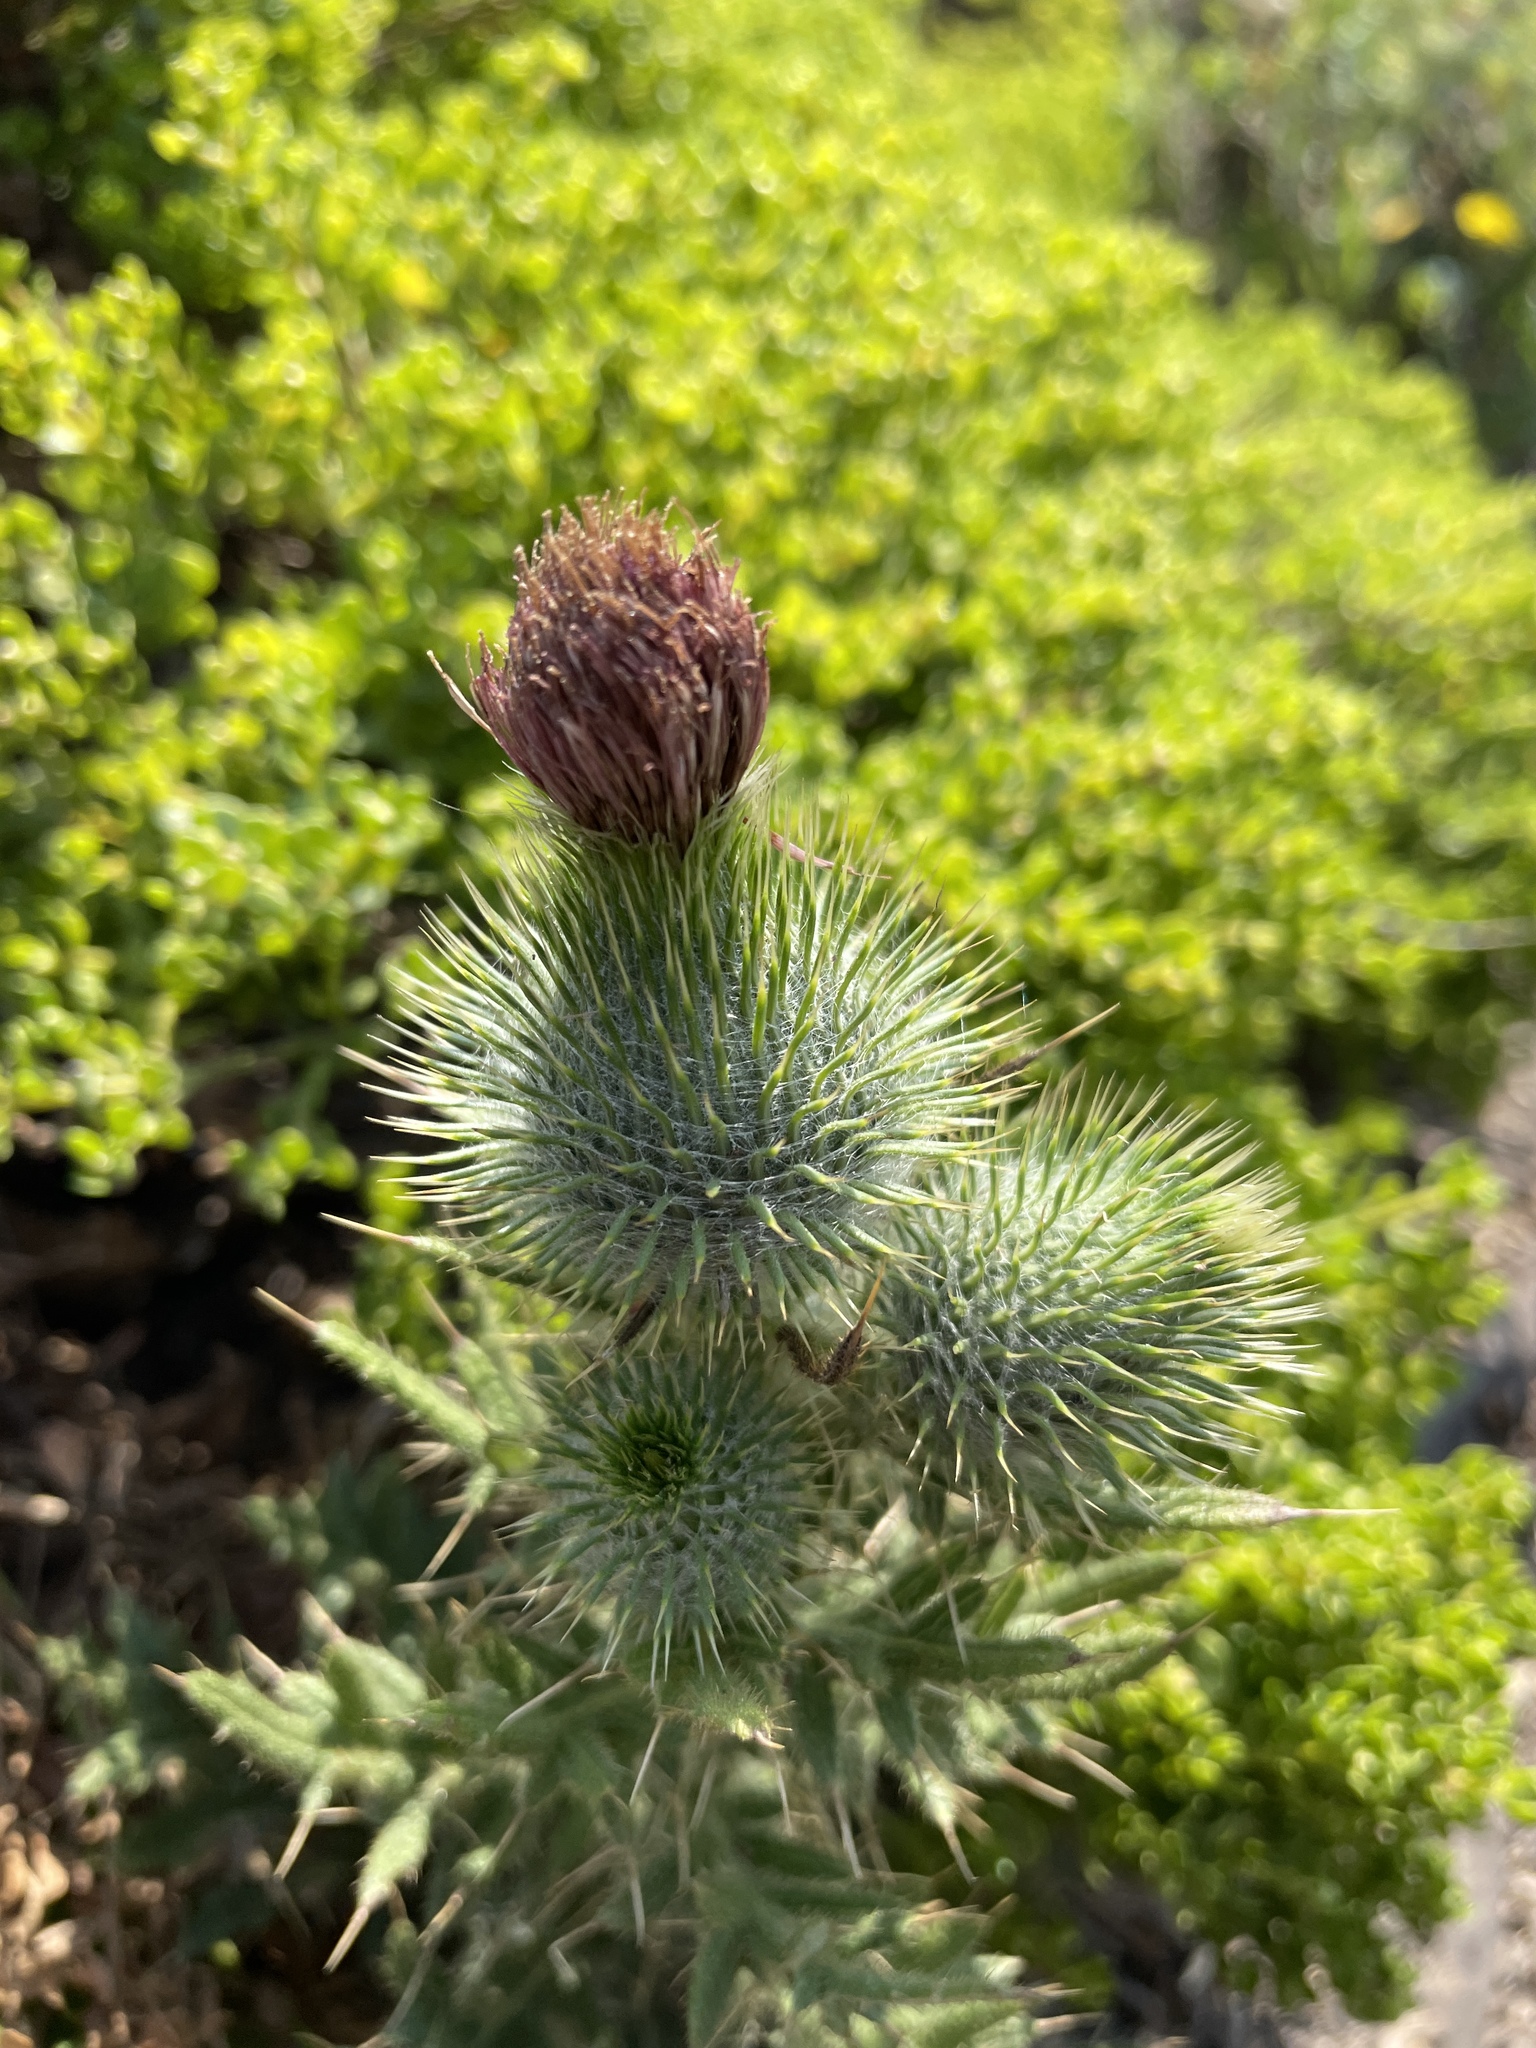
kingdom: Plantae
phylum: Tracheophyta
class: Magnoliopsida
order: Asterales
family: Asteraceae
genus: Cirsium
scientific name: Cirsium vulgare
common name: Bull thistle
